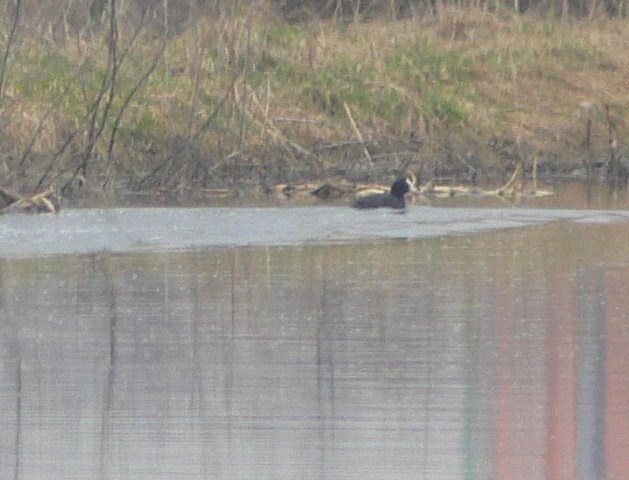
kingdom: Animalia
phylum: Chordata
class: Aves
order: Gruiformes
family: Rallidae
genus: Fulica
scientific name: Fulica atra
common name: Eurasian coot
